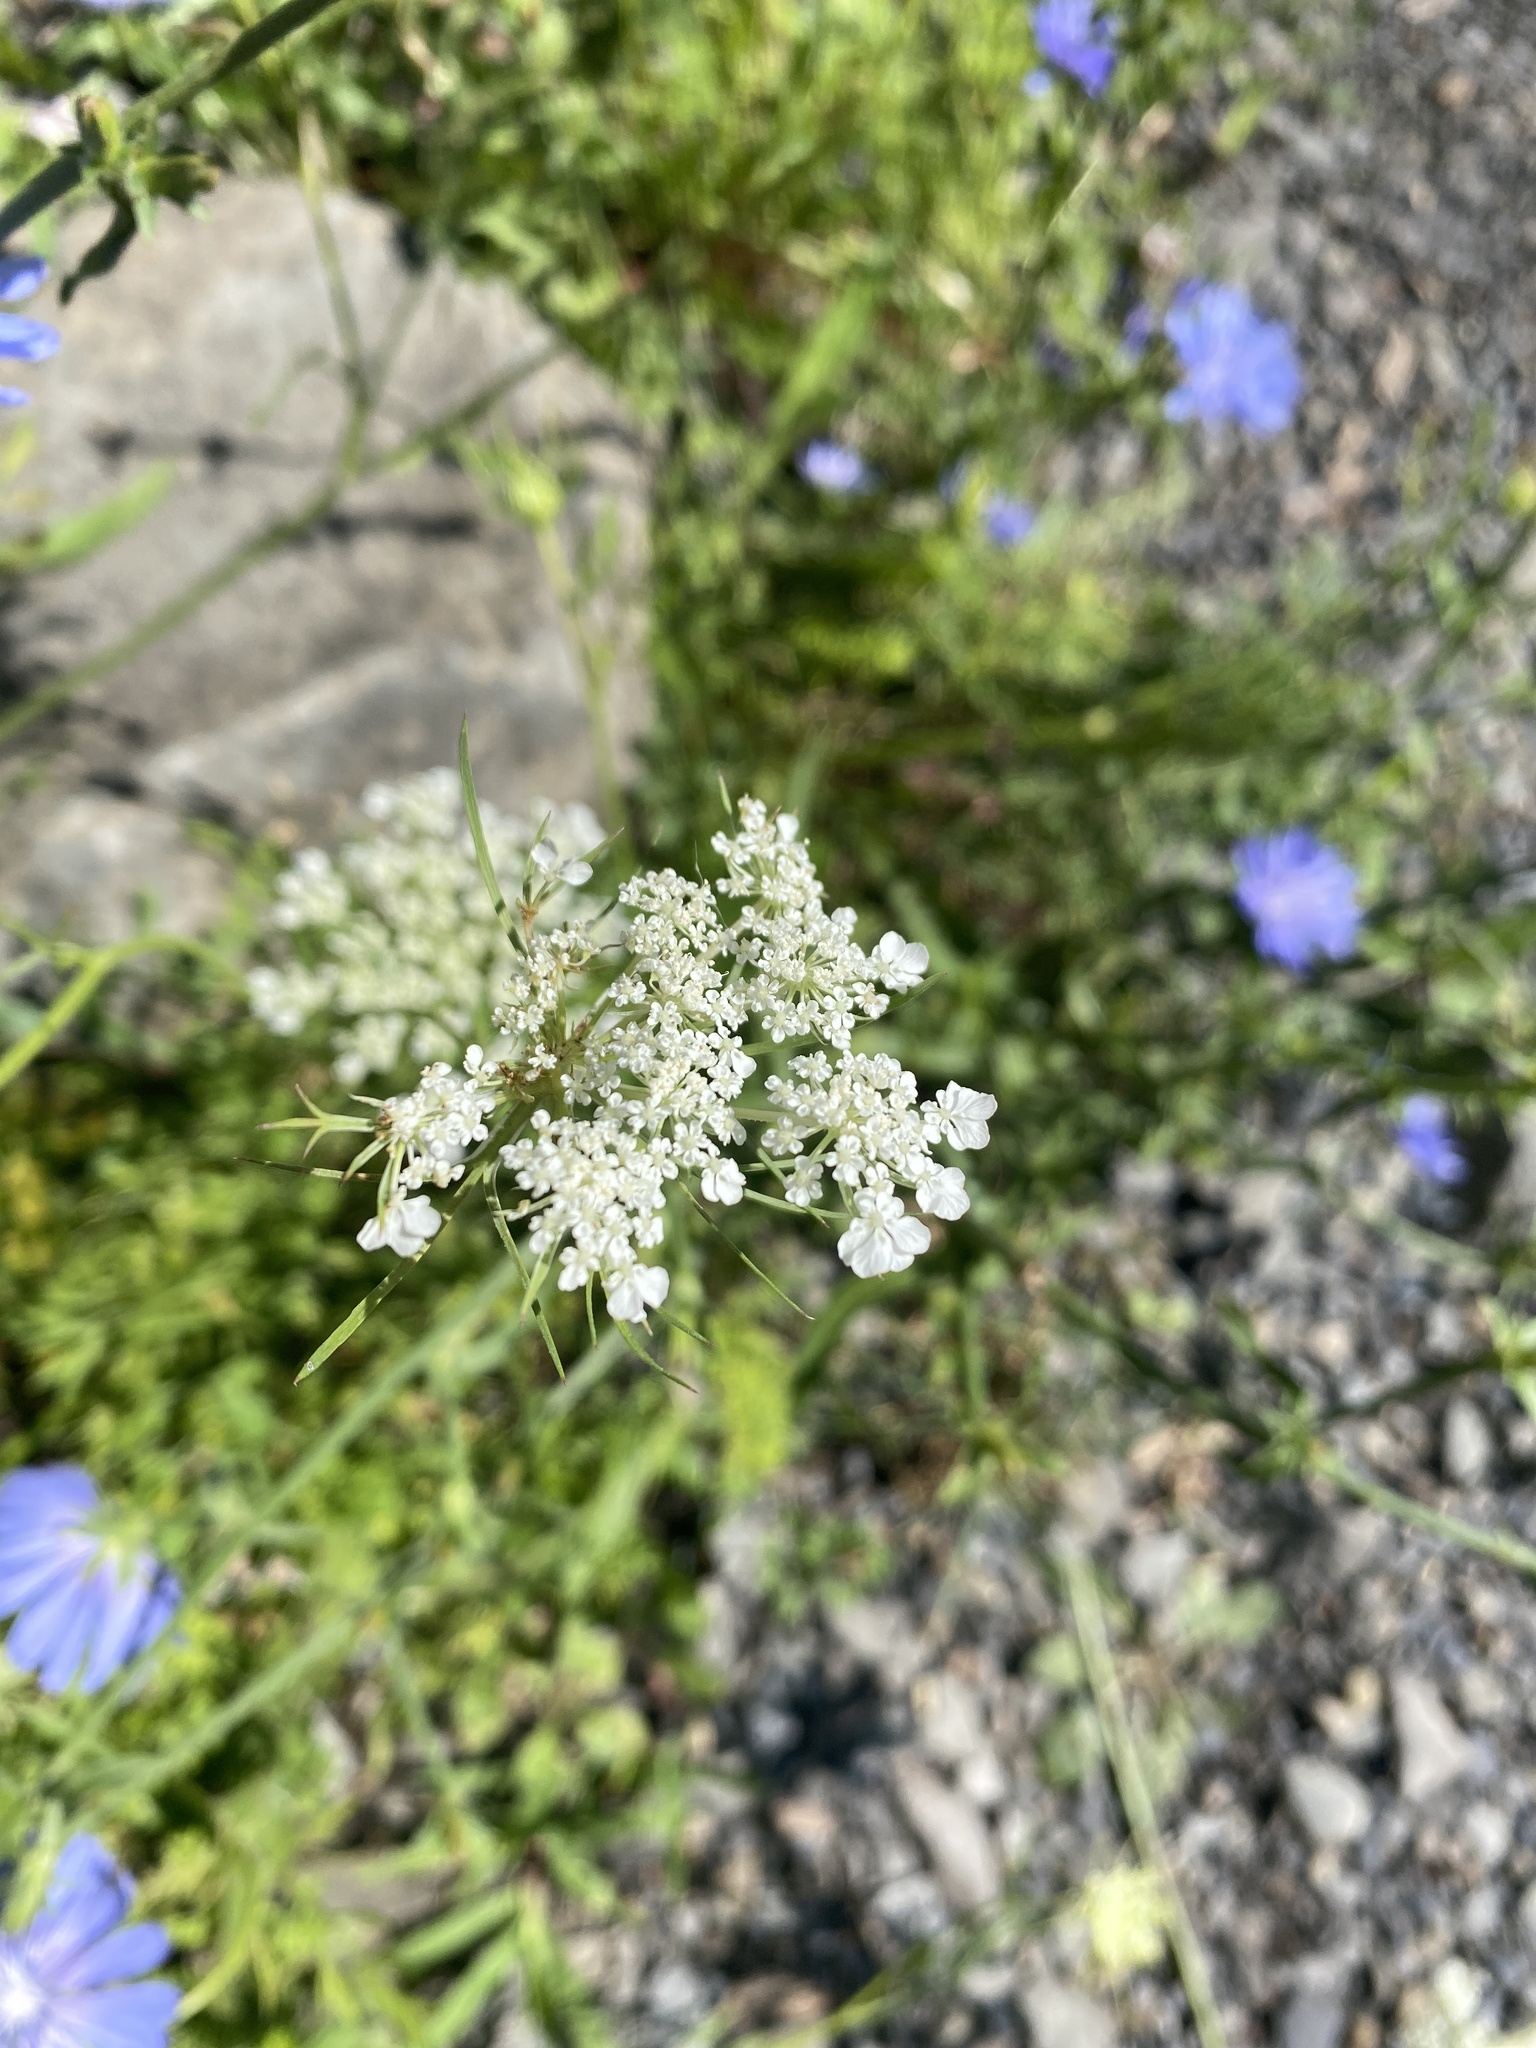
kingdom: Plantae
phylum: Tracheophyta
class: Magnoliopsida
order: Apiales
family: Apiaceae
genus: Daucus
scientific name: Daucus carota
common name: Wild carrot
